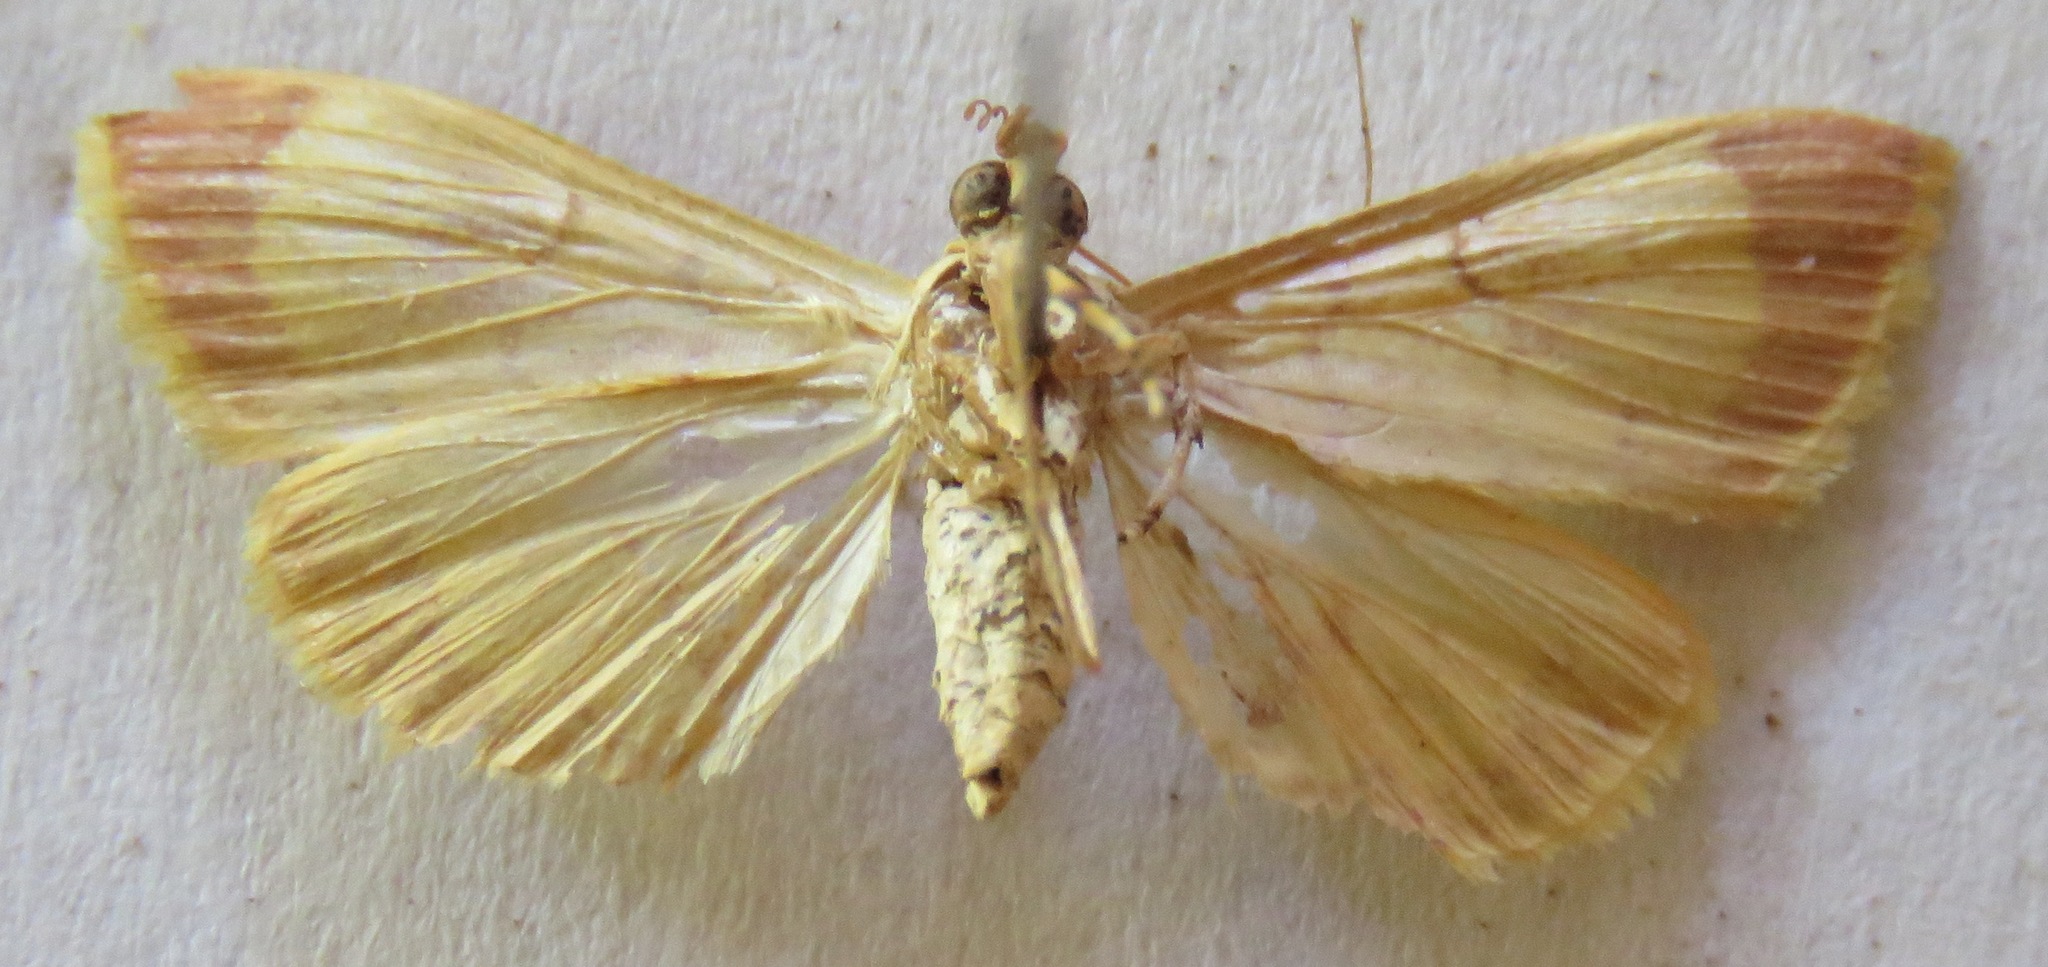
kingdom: Animalia
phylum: Arthropoda
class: Insecta
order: Lepidoptera
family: Crambidae
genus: Portentomorpha
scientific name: Portentomorpha xanthialis
